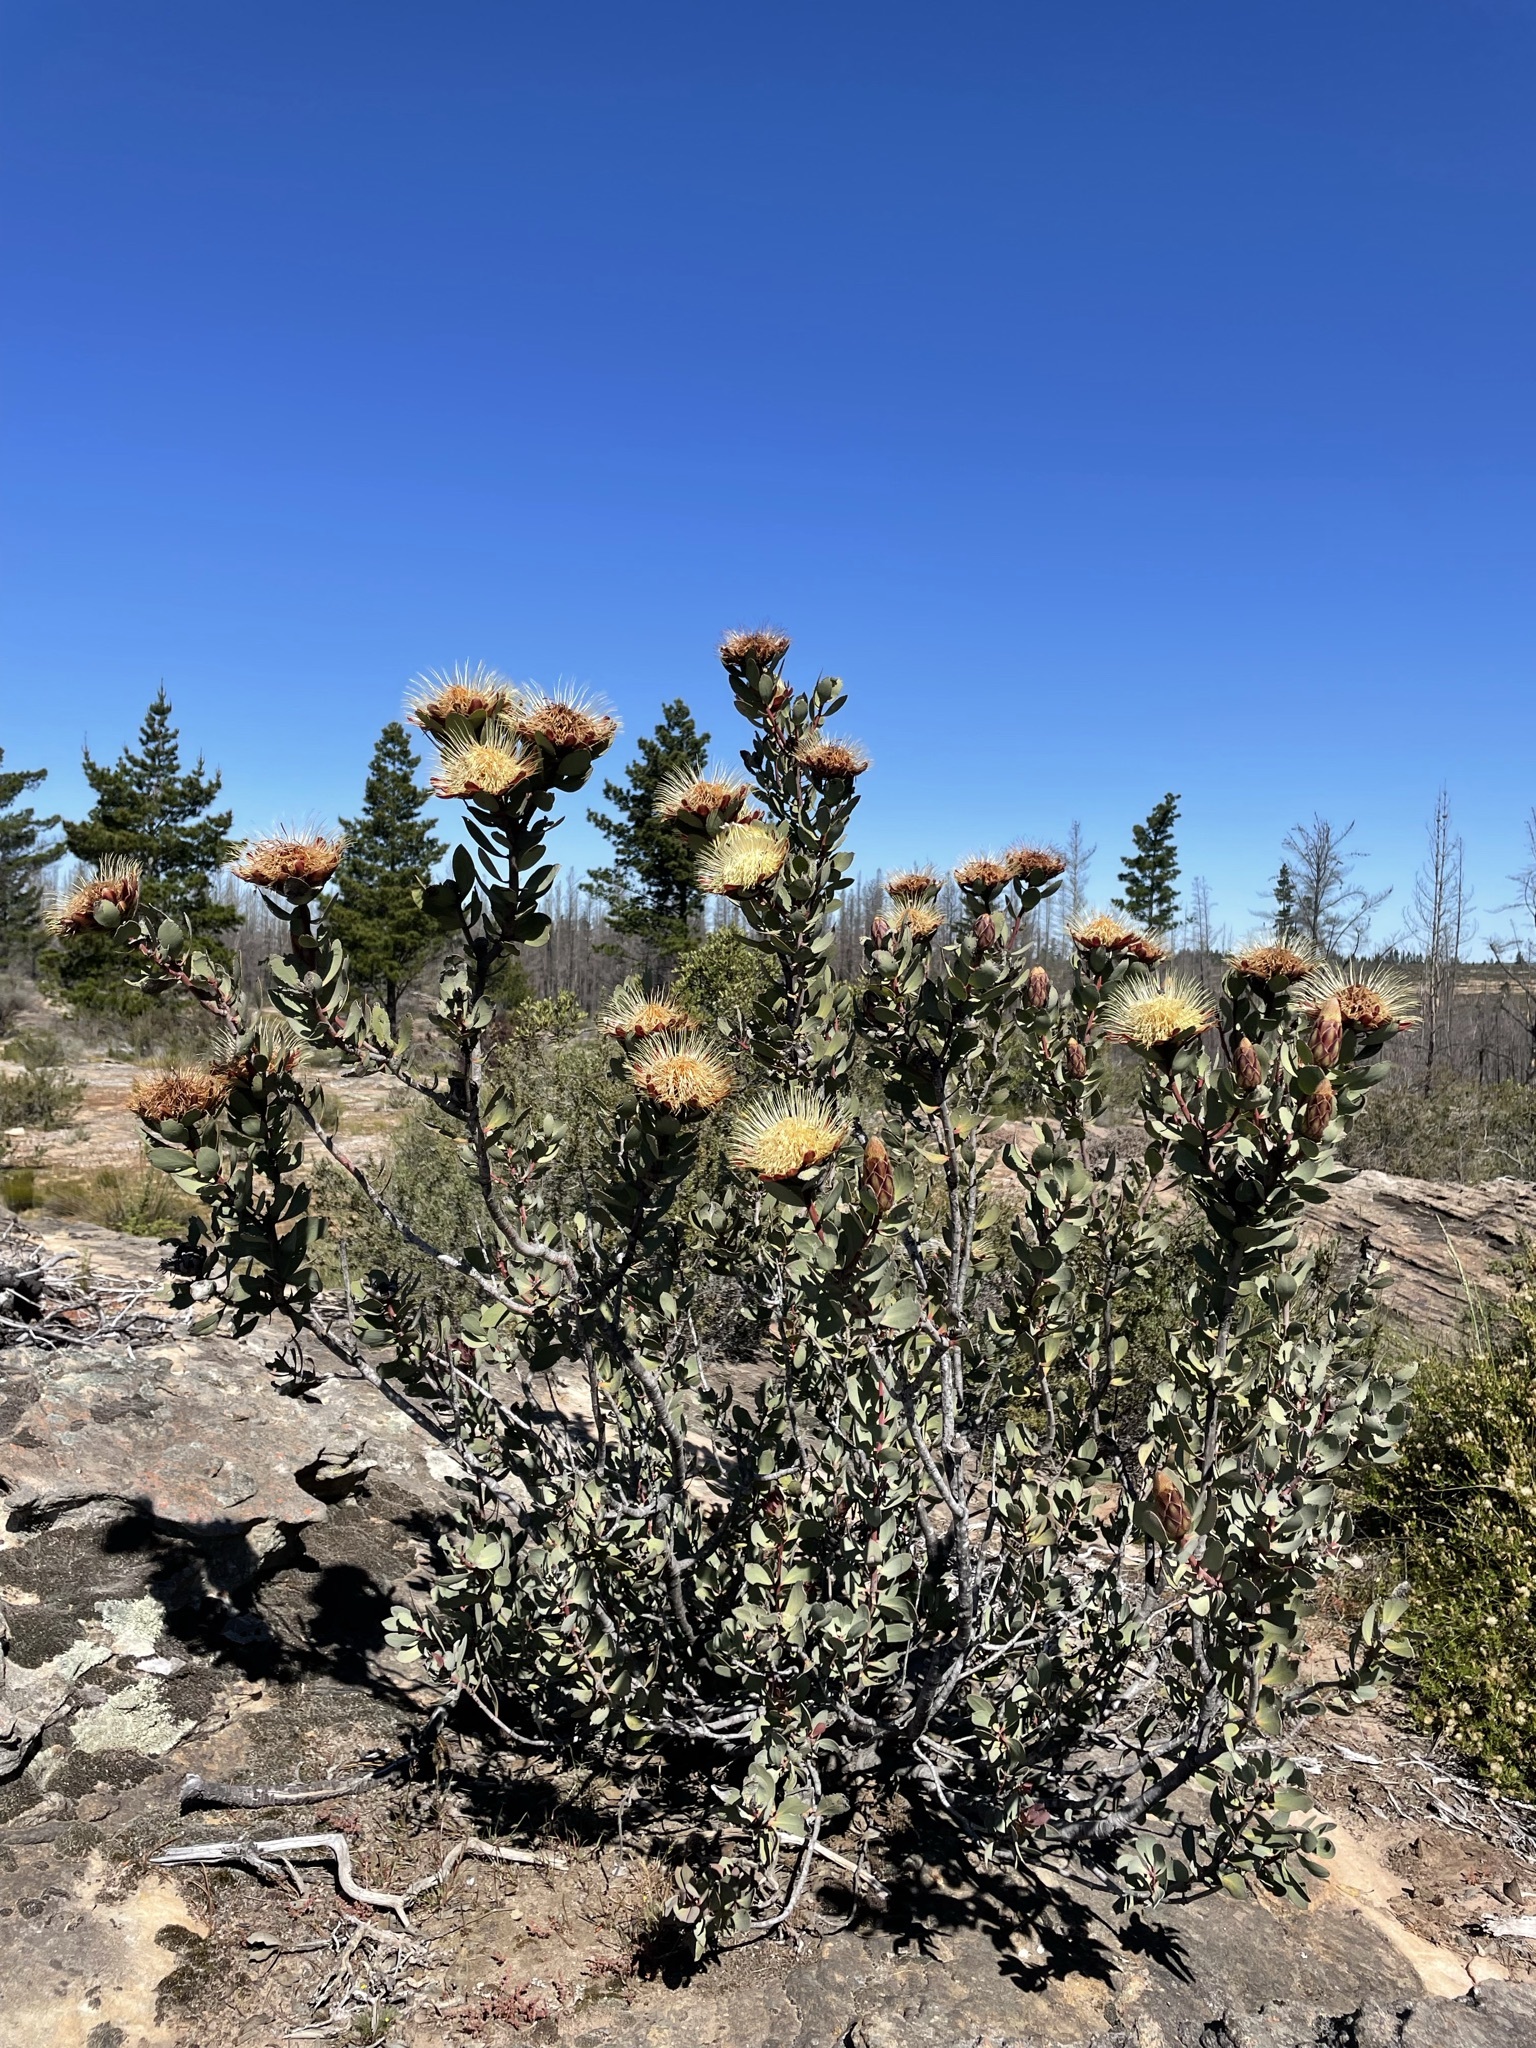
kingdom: Plantae
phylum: Tracheophyta
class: Magnoliopsida
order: Proteales
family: Proteaceae
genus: Protea
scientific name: Protea glabra
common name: Chestnut sugarbush
